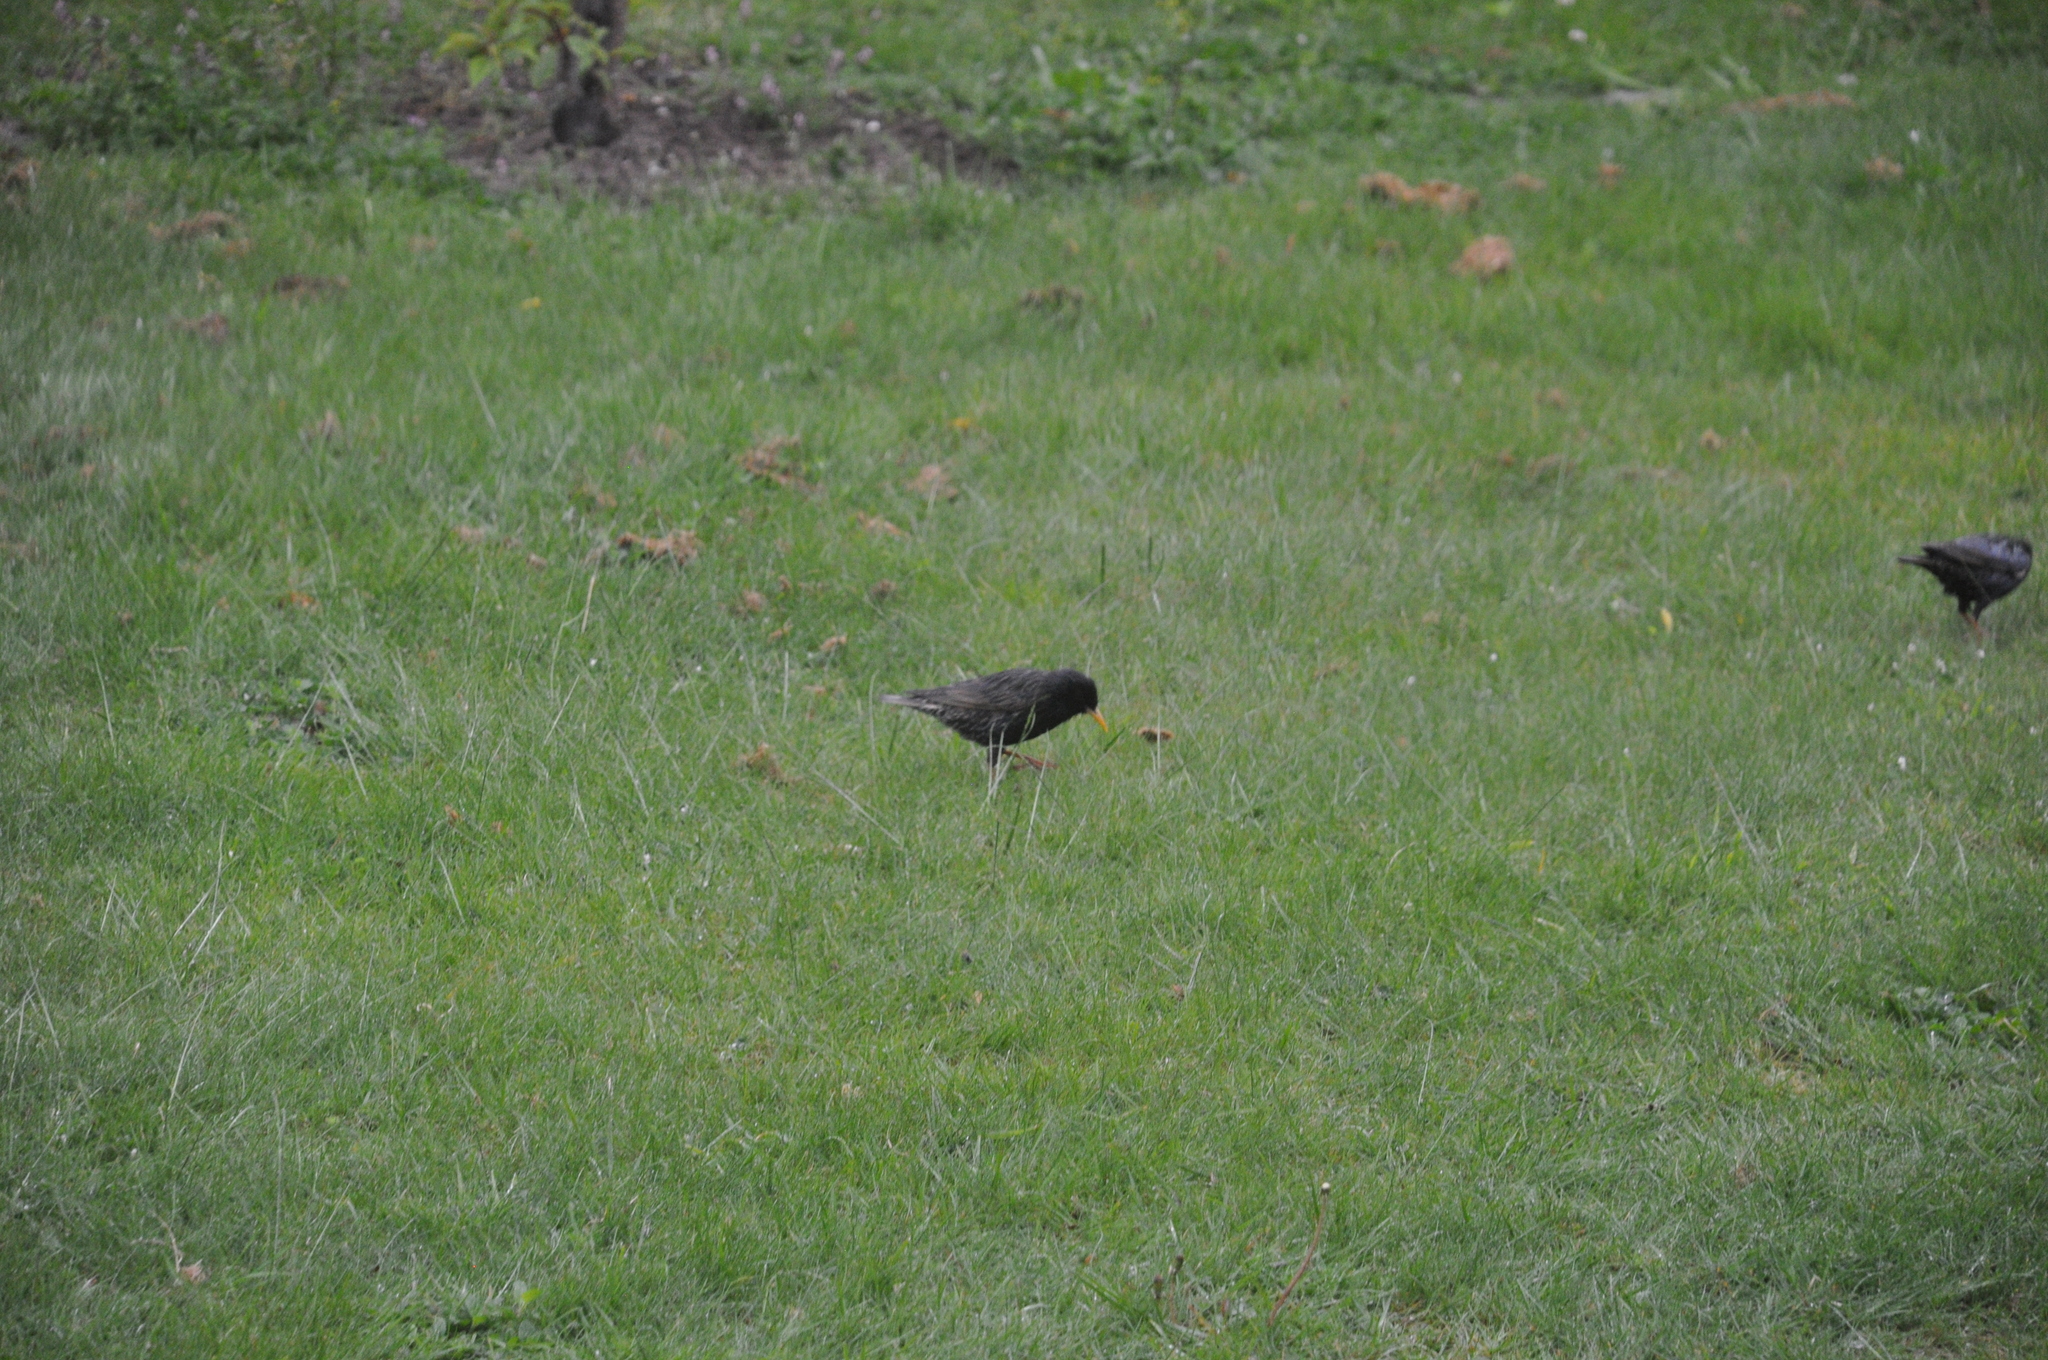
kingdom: Animalia
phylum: Chordata
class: Aves
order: Passeriformes
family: Sturnidae
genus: Sturnus
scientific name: Sturnus vulgaris
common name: Common starling
